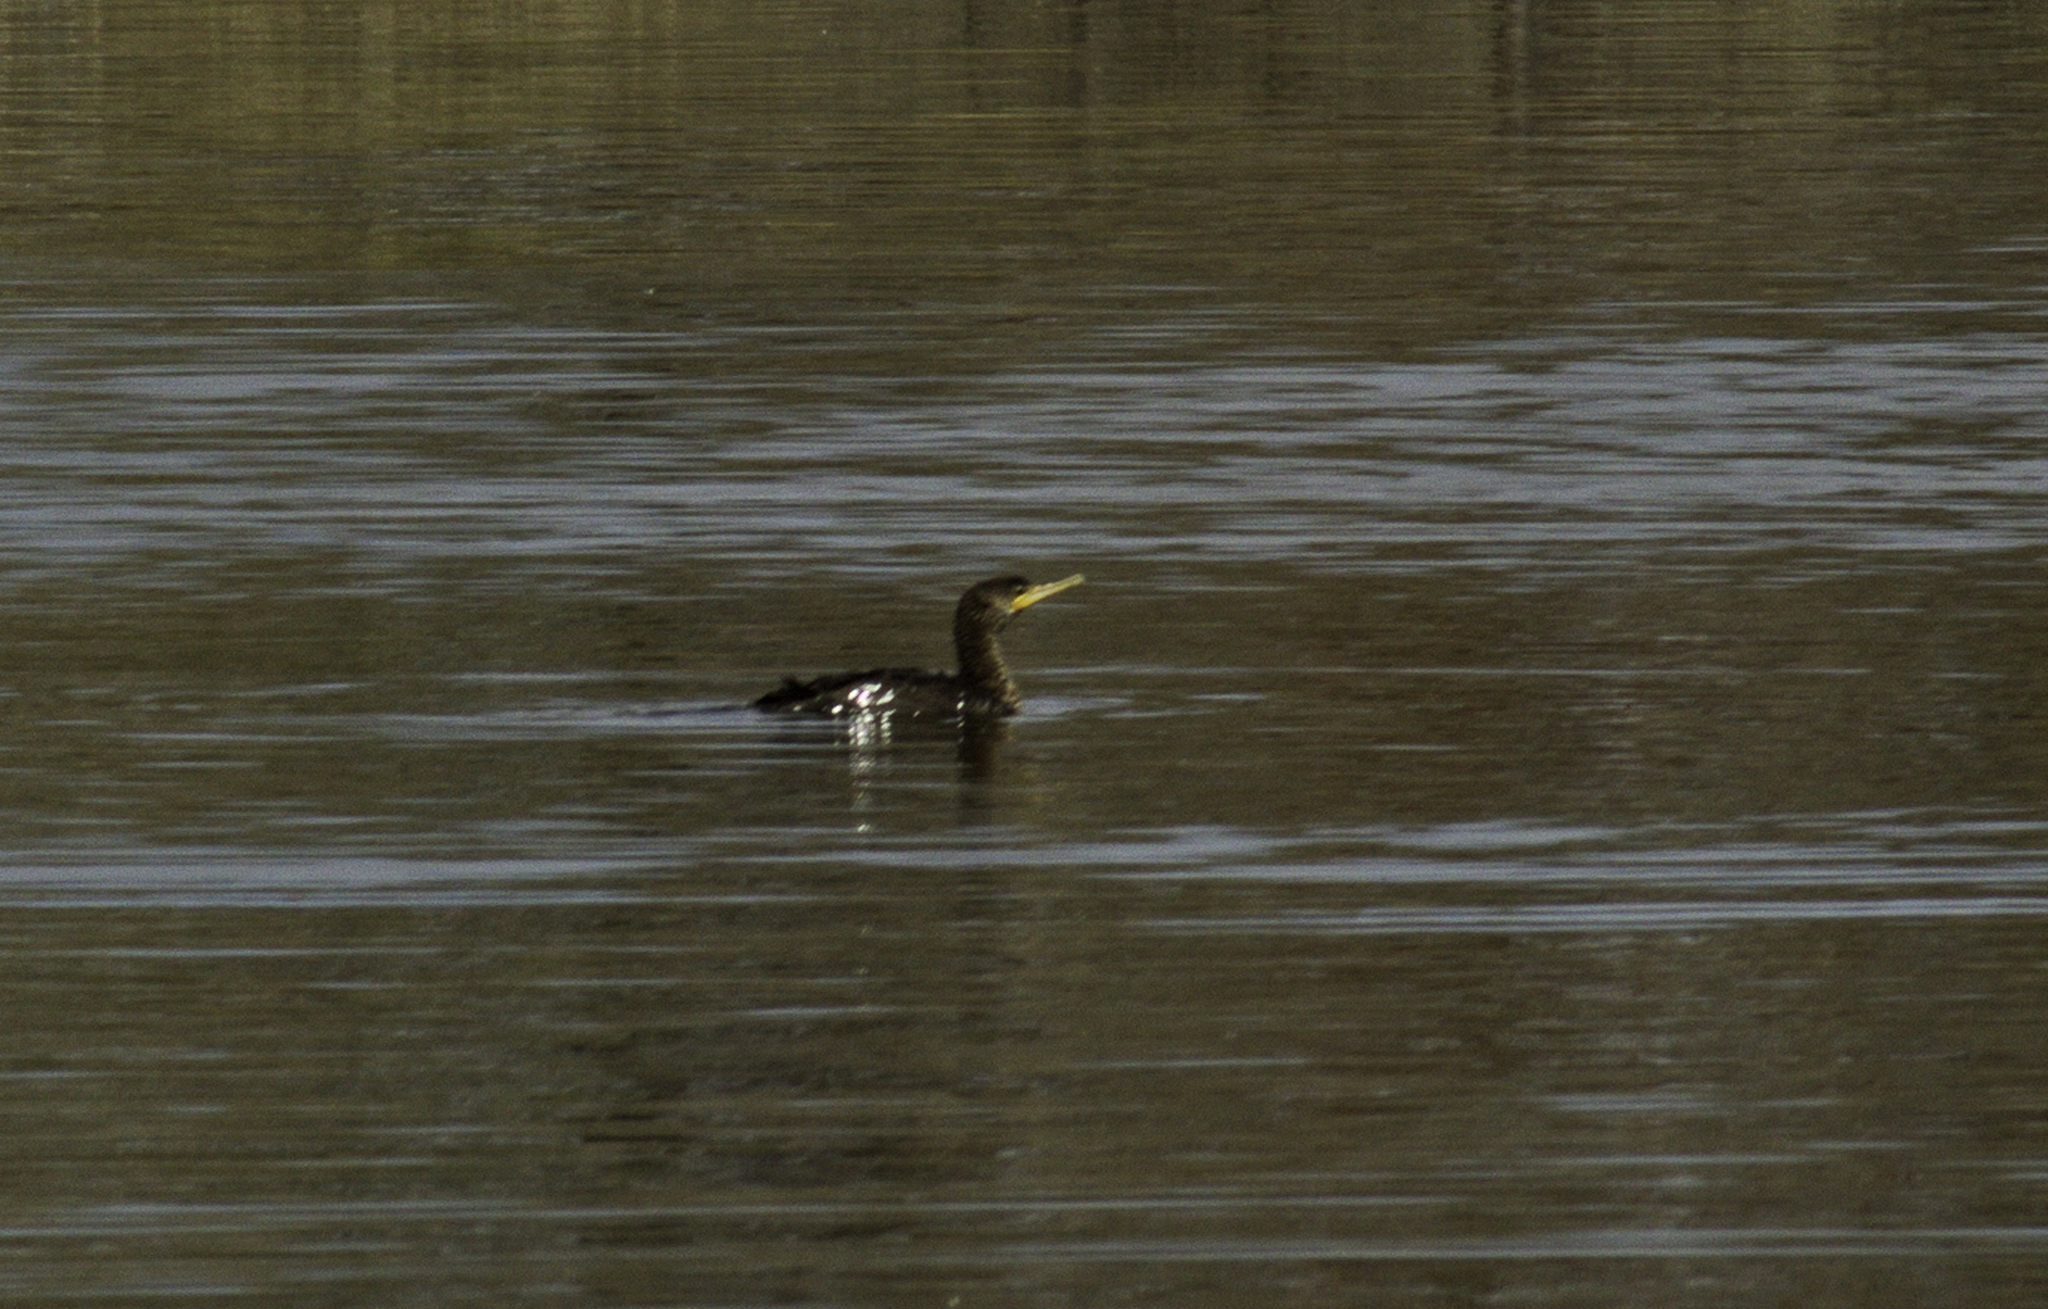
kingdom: Animalia
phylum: Chordata
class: Aves
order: Suliformes
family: Phalacrocoracidae
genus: Phalacrocorax
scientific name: Phalacrocorax brasilianus
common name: Neotropic cormorant
